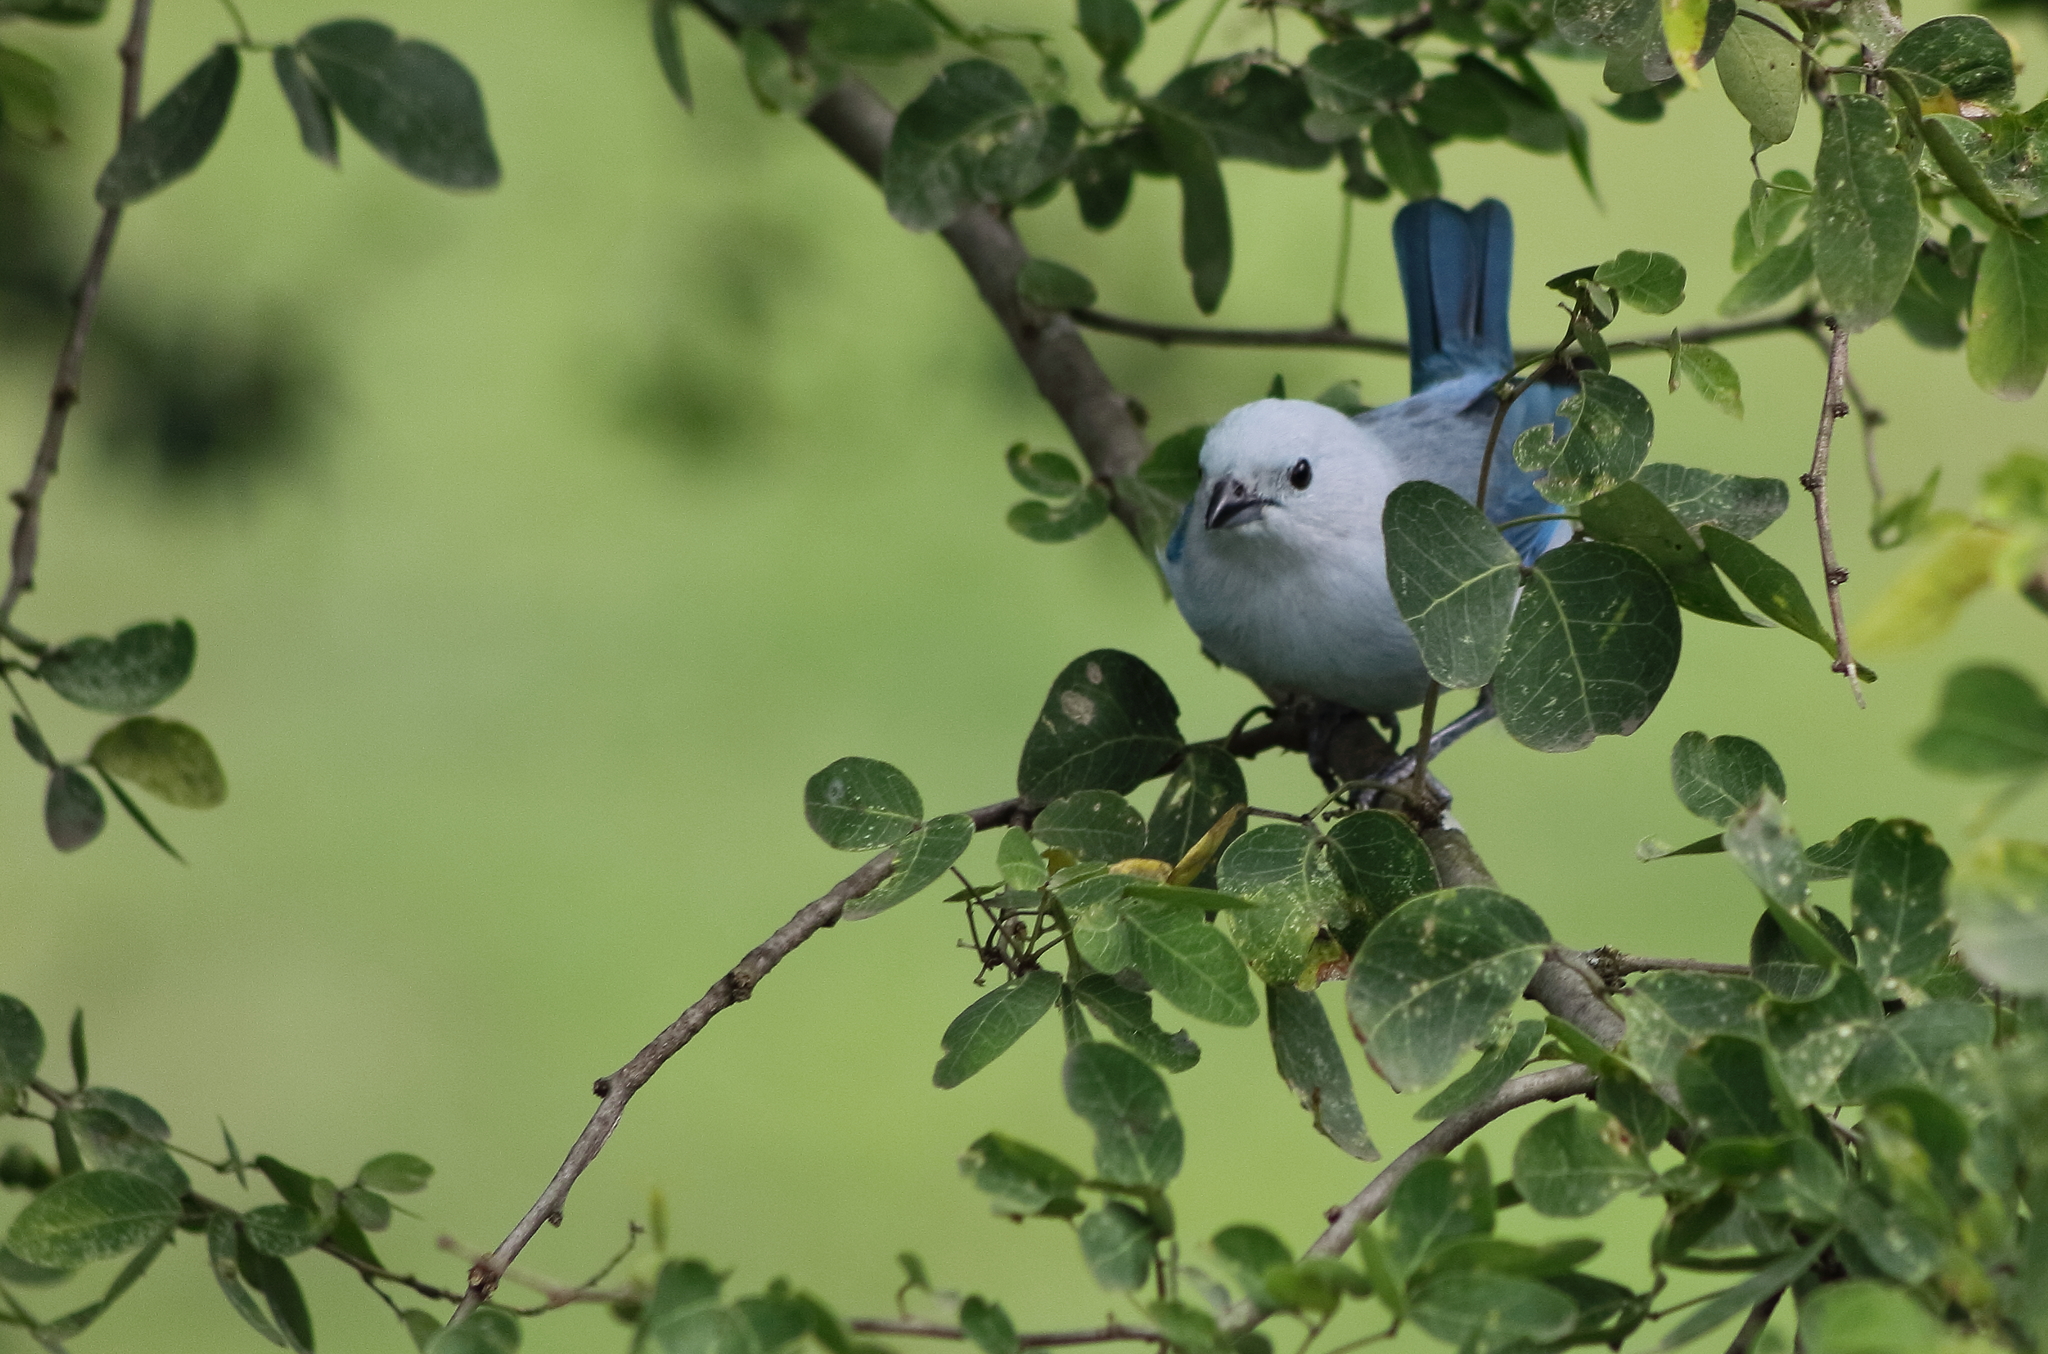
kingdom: Animalia
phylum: Chordata
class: Aves
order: Passeriformes
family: Thraupidae
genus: Thraupis
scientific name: Thraupis episcopus
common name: Blue-grey tanager
